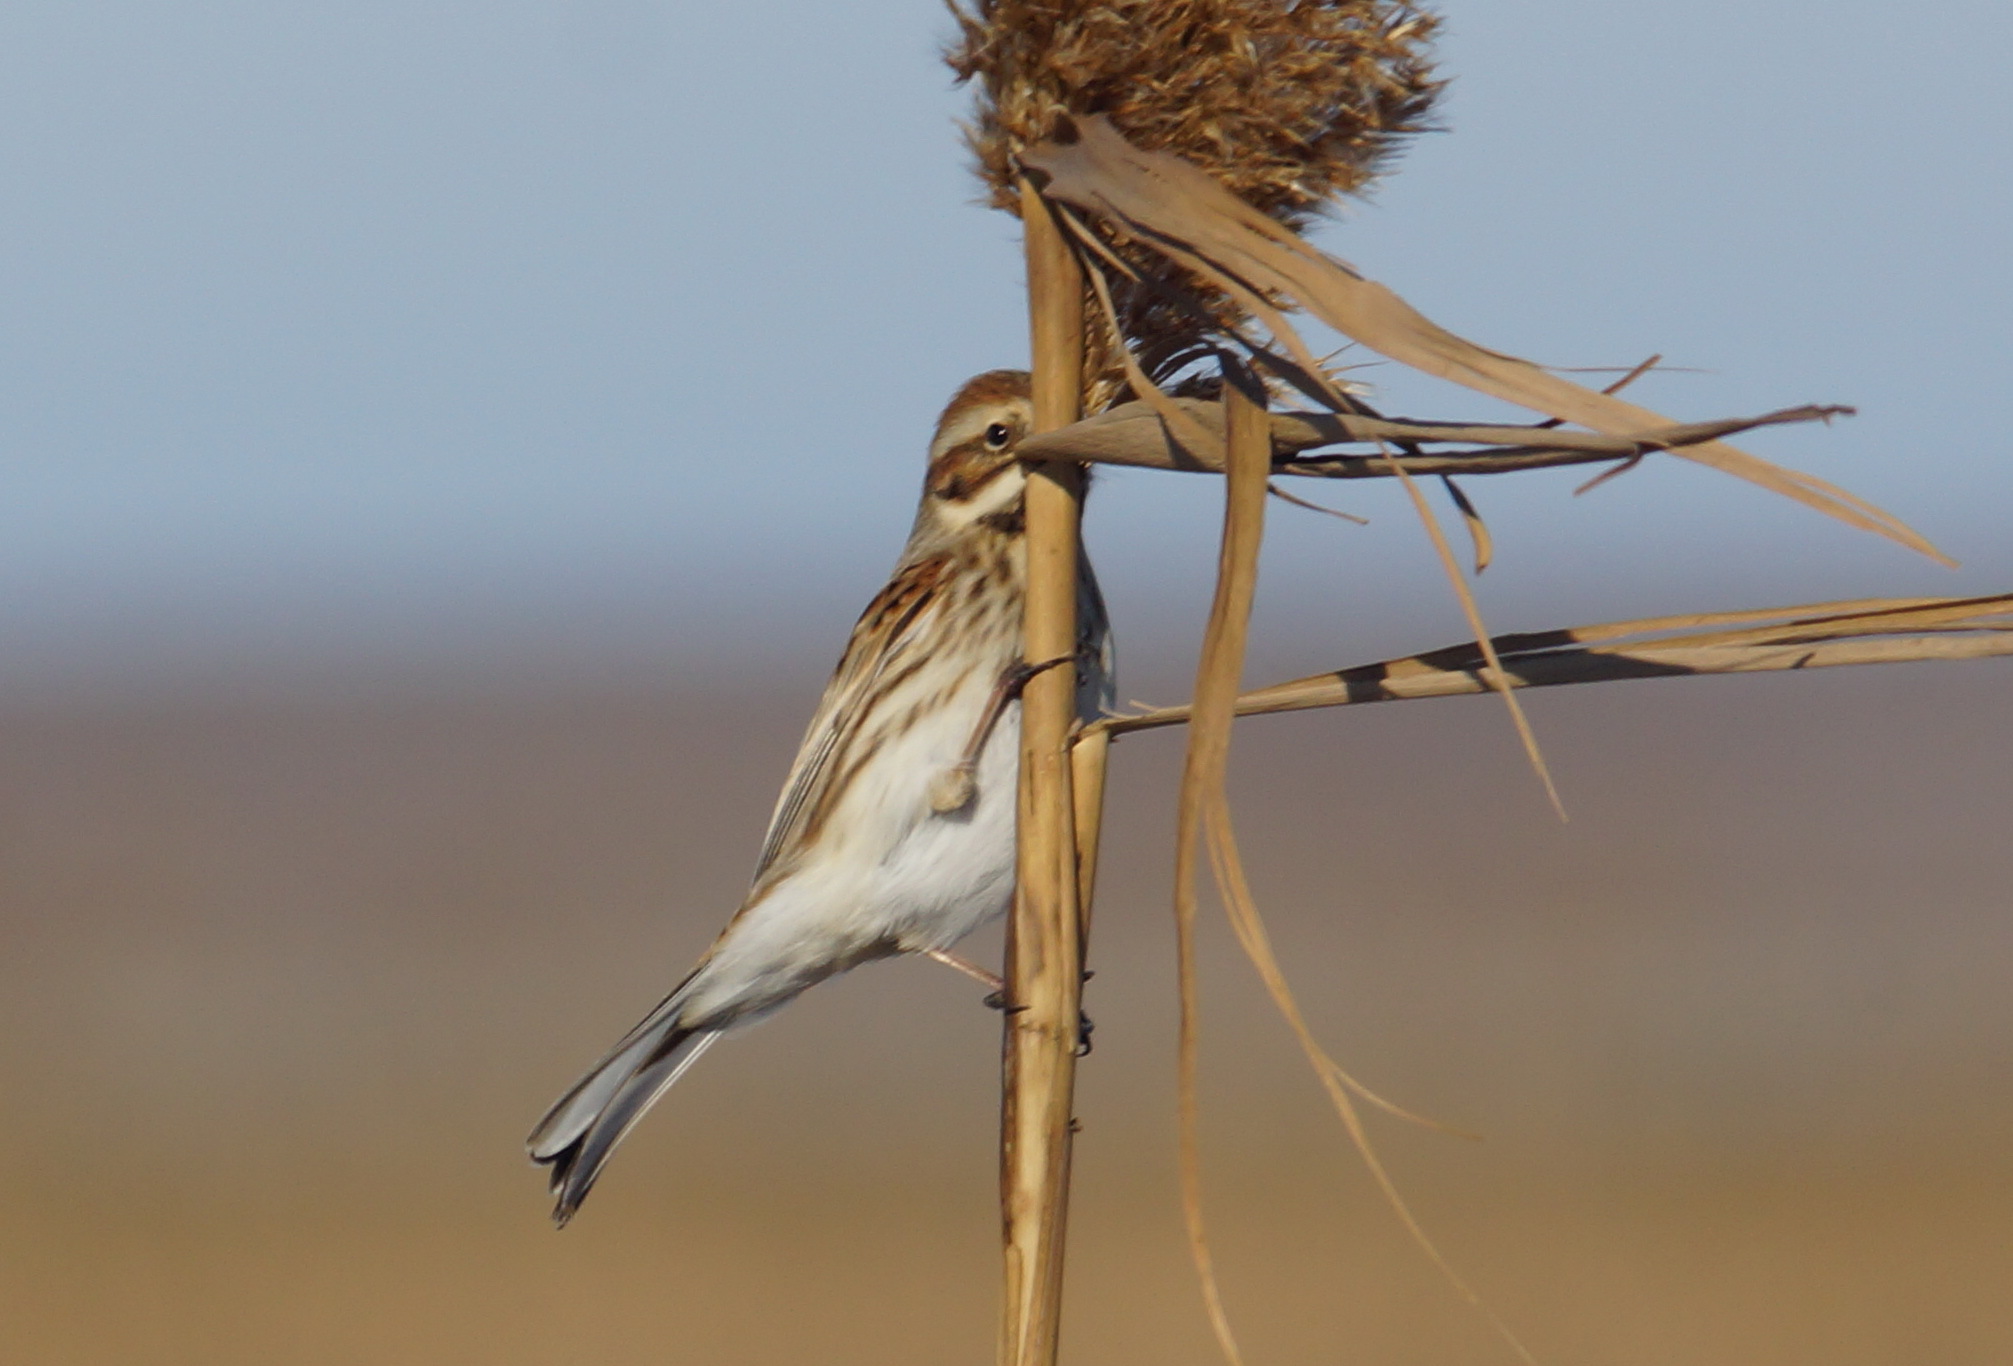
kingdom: Animalia
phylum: Chordata
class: Aves
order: Passeriformes
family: Emberizidae
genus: Emberiza
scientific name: Emberiza schoeniclus
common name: Reed bunting
